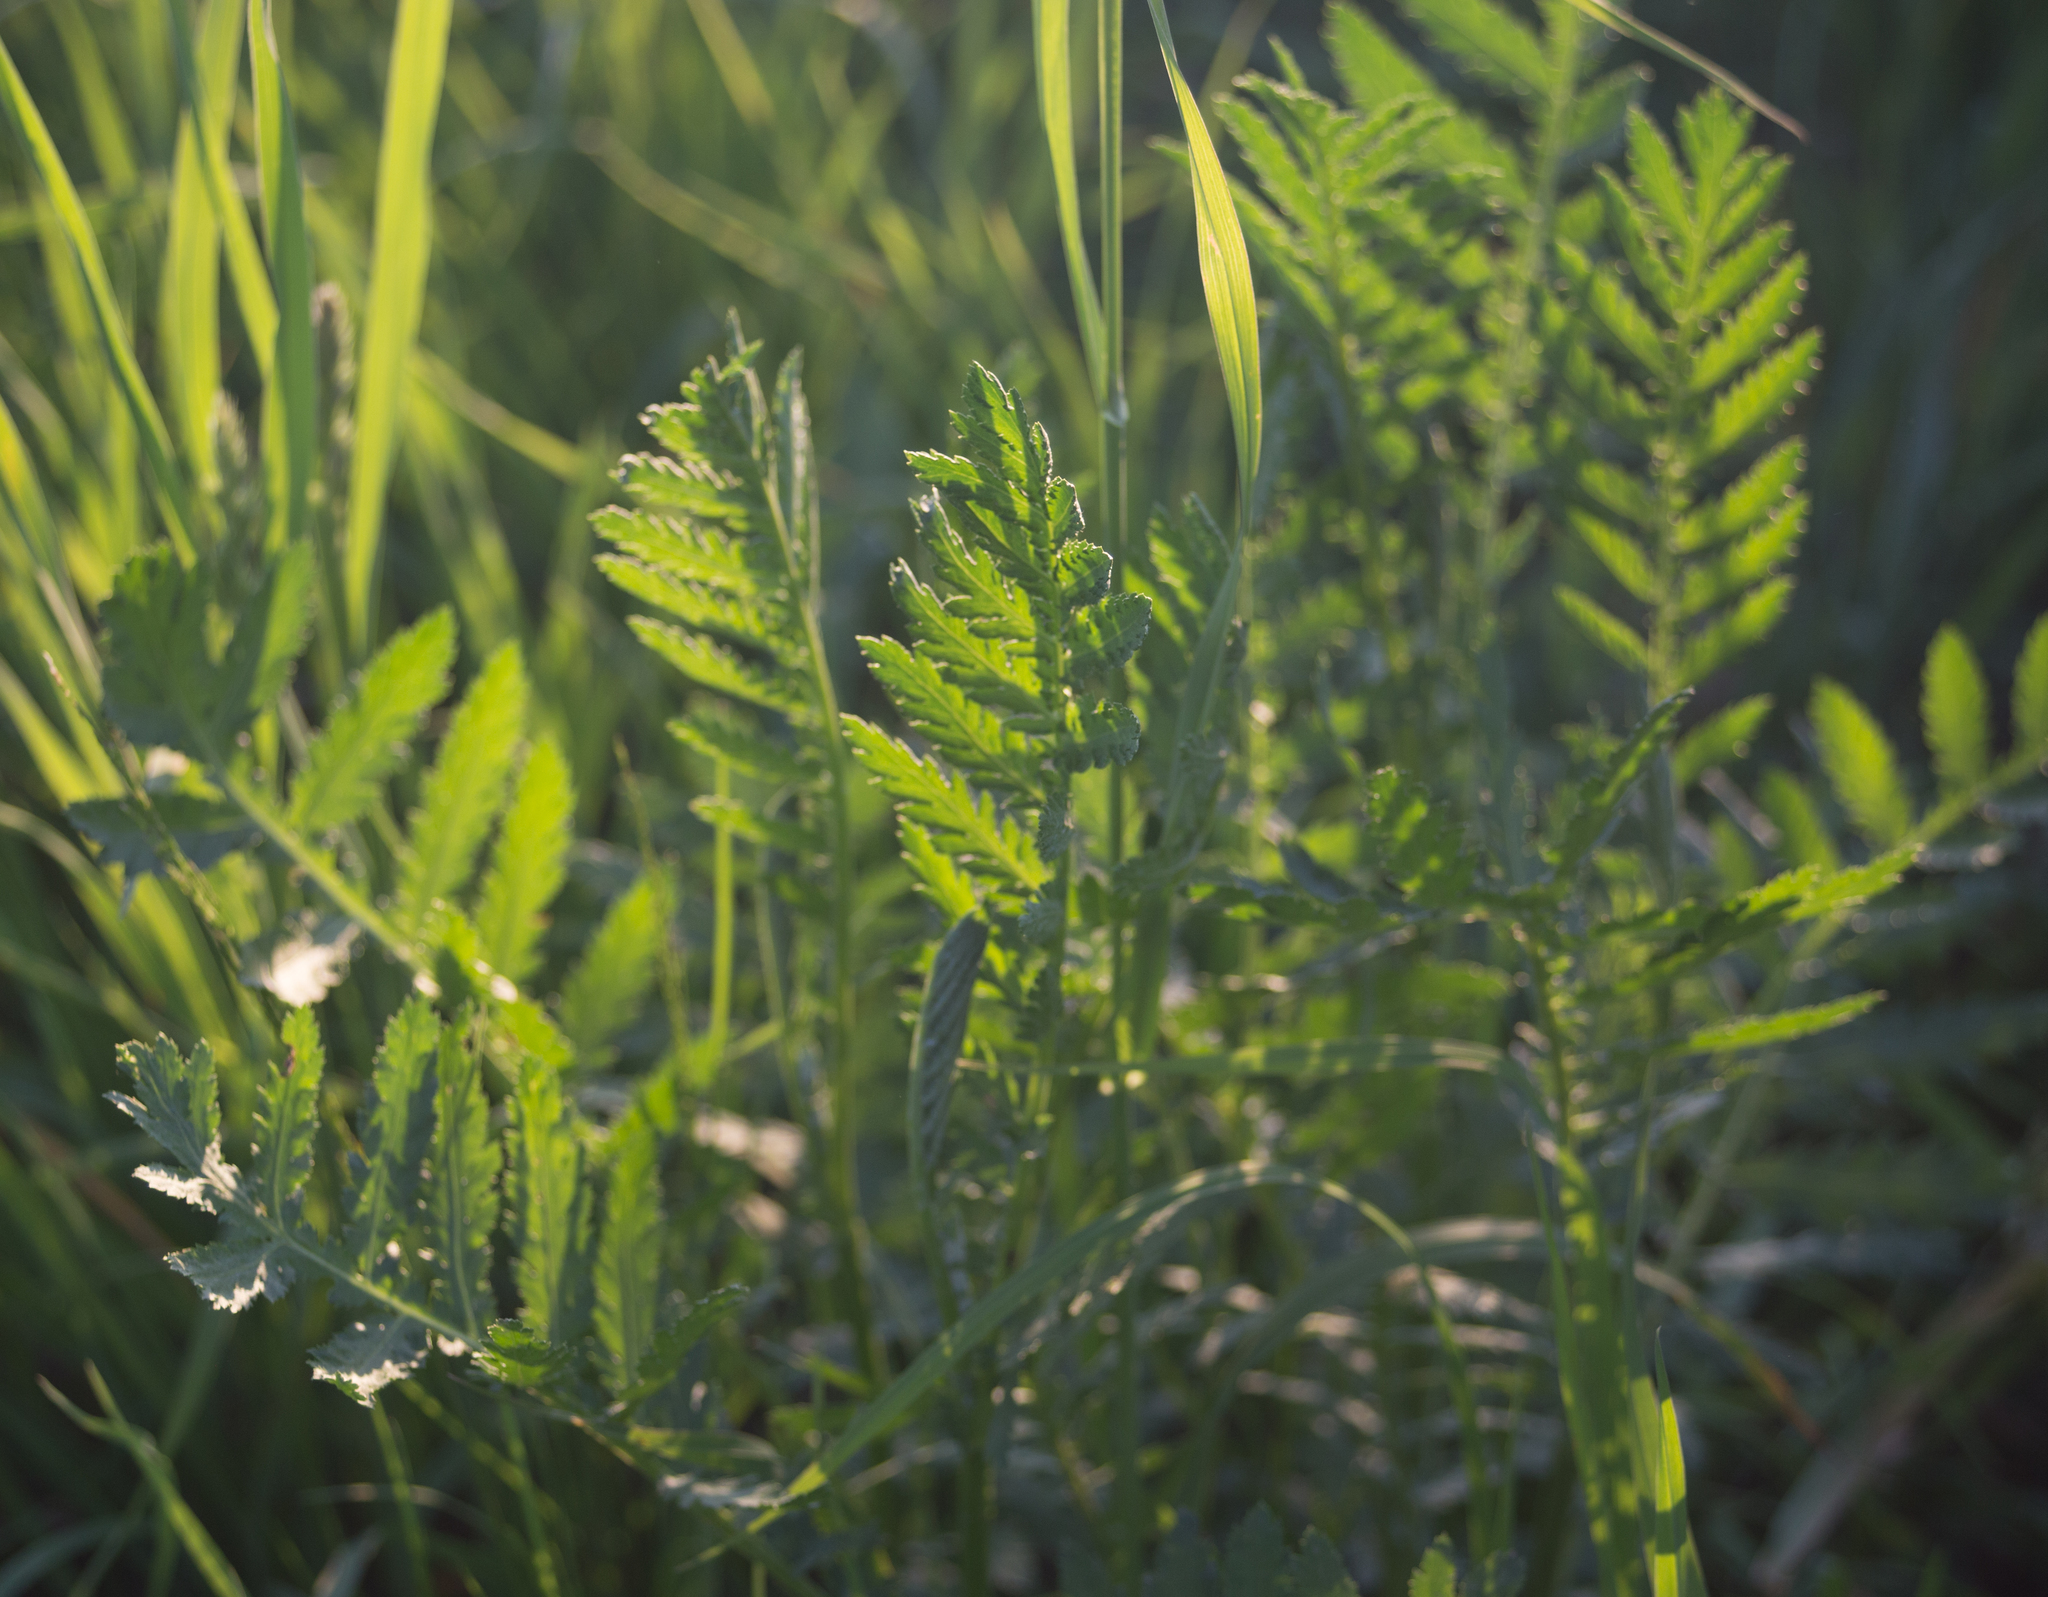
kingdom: Plantae
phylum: Tracheophyta
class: Magnoliopsida
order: Asterales
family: Asteraceae
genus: Tanacetum
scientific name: Tanacetum vulgare
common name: Common tansy
